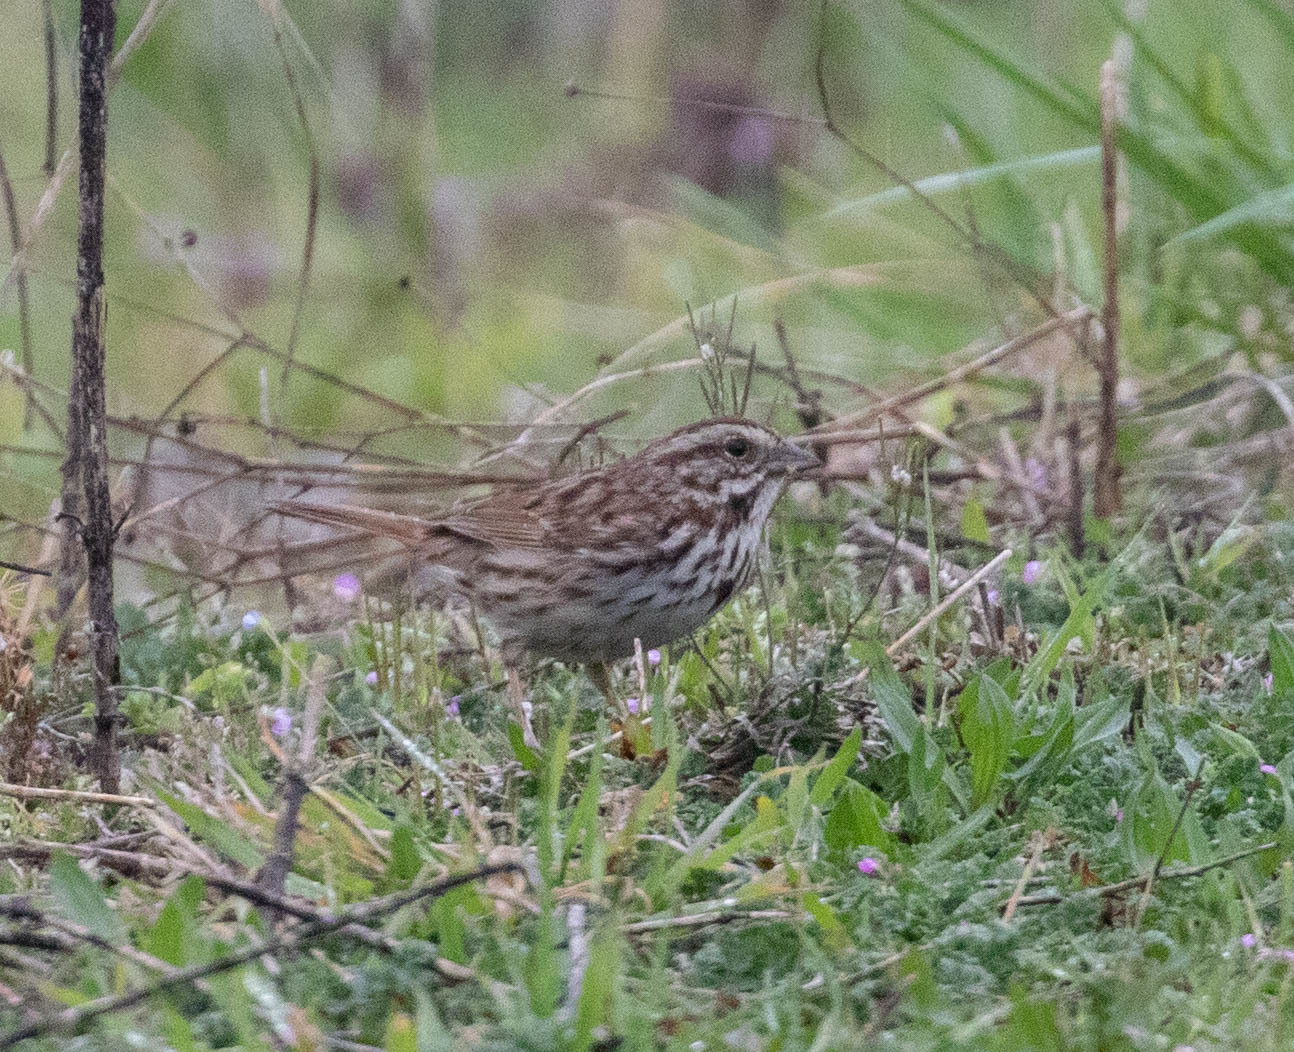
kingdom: Animalia
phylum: Chordata
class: Aves
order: Passeriformes
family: Passerellidae
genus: Melospiza
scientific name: Melospiza melodia
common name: Song sparrow
